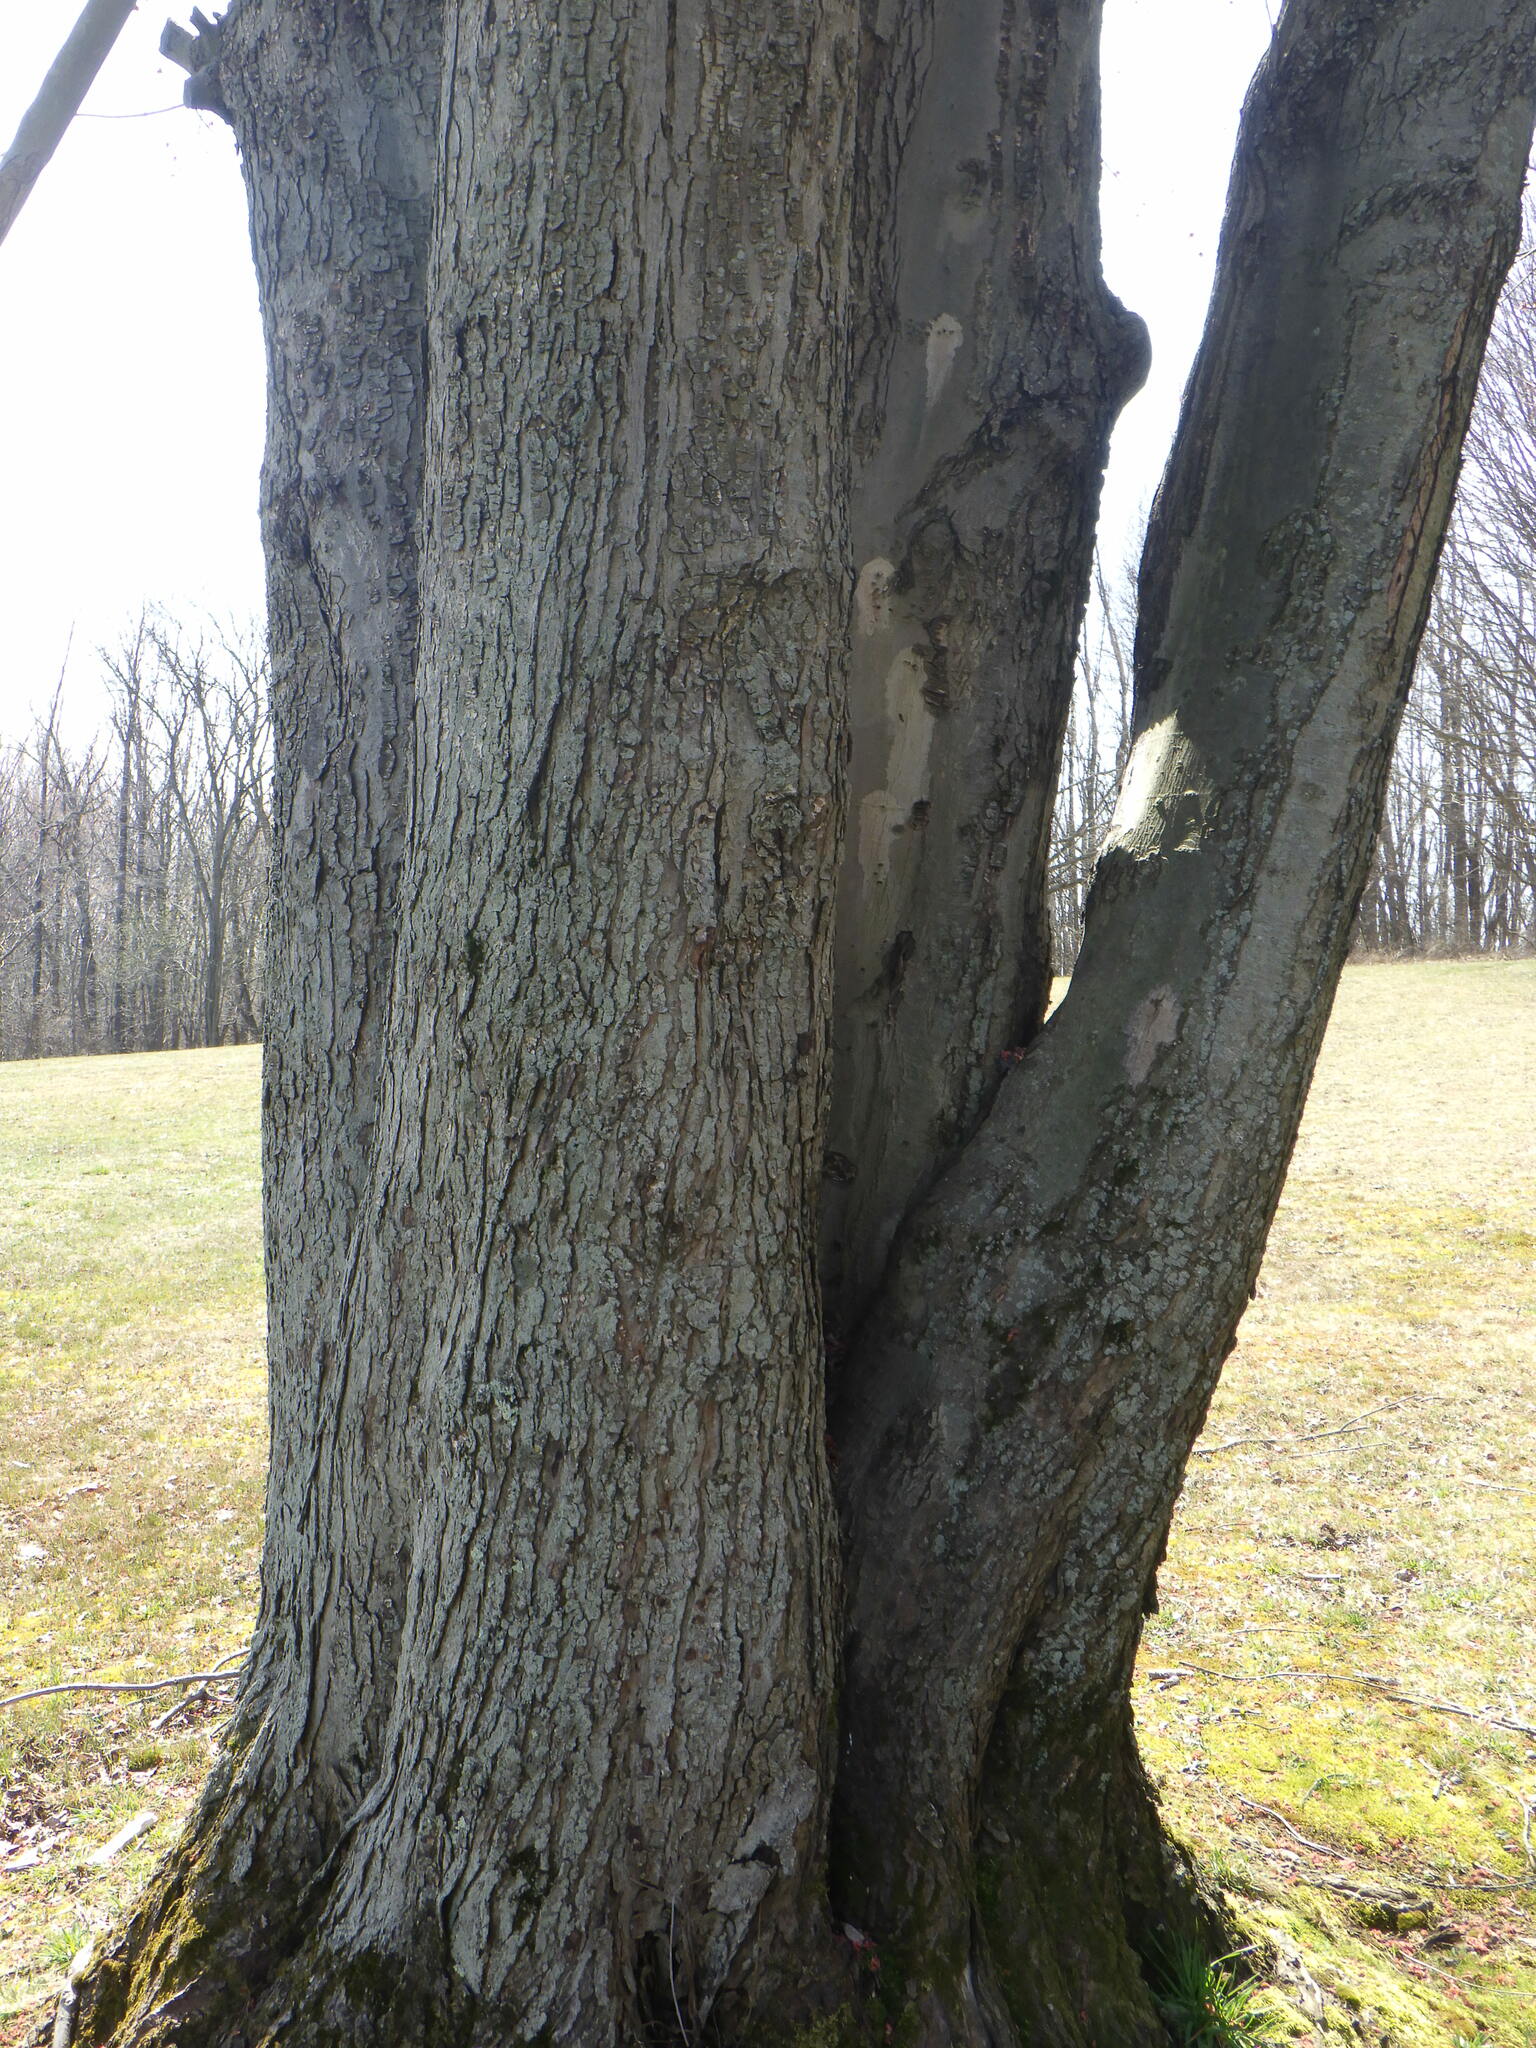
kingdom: Plantae
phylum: Tracheophyta
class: Magnoliopsida
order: Sapindales
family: Sapindaceae
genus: Acer
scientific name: Acer rubrum
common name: Red maple
